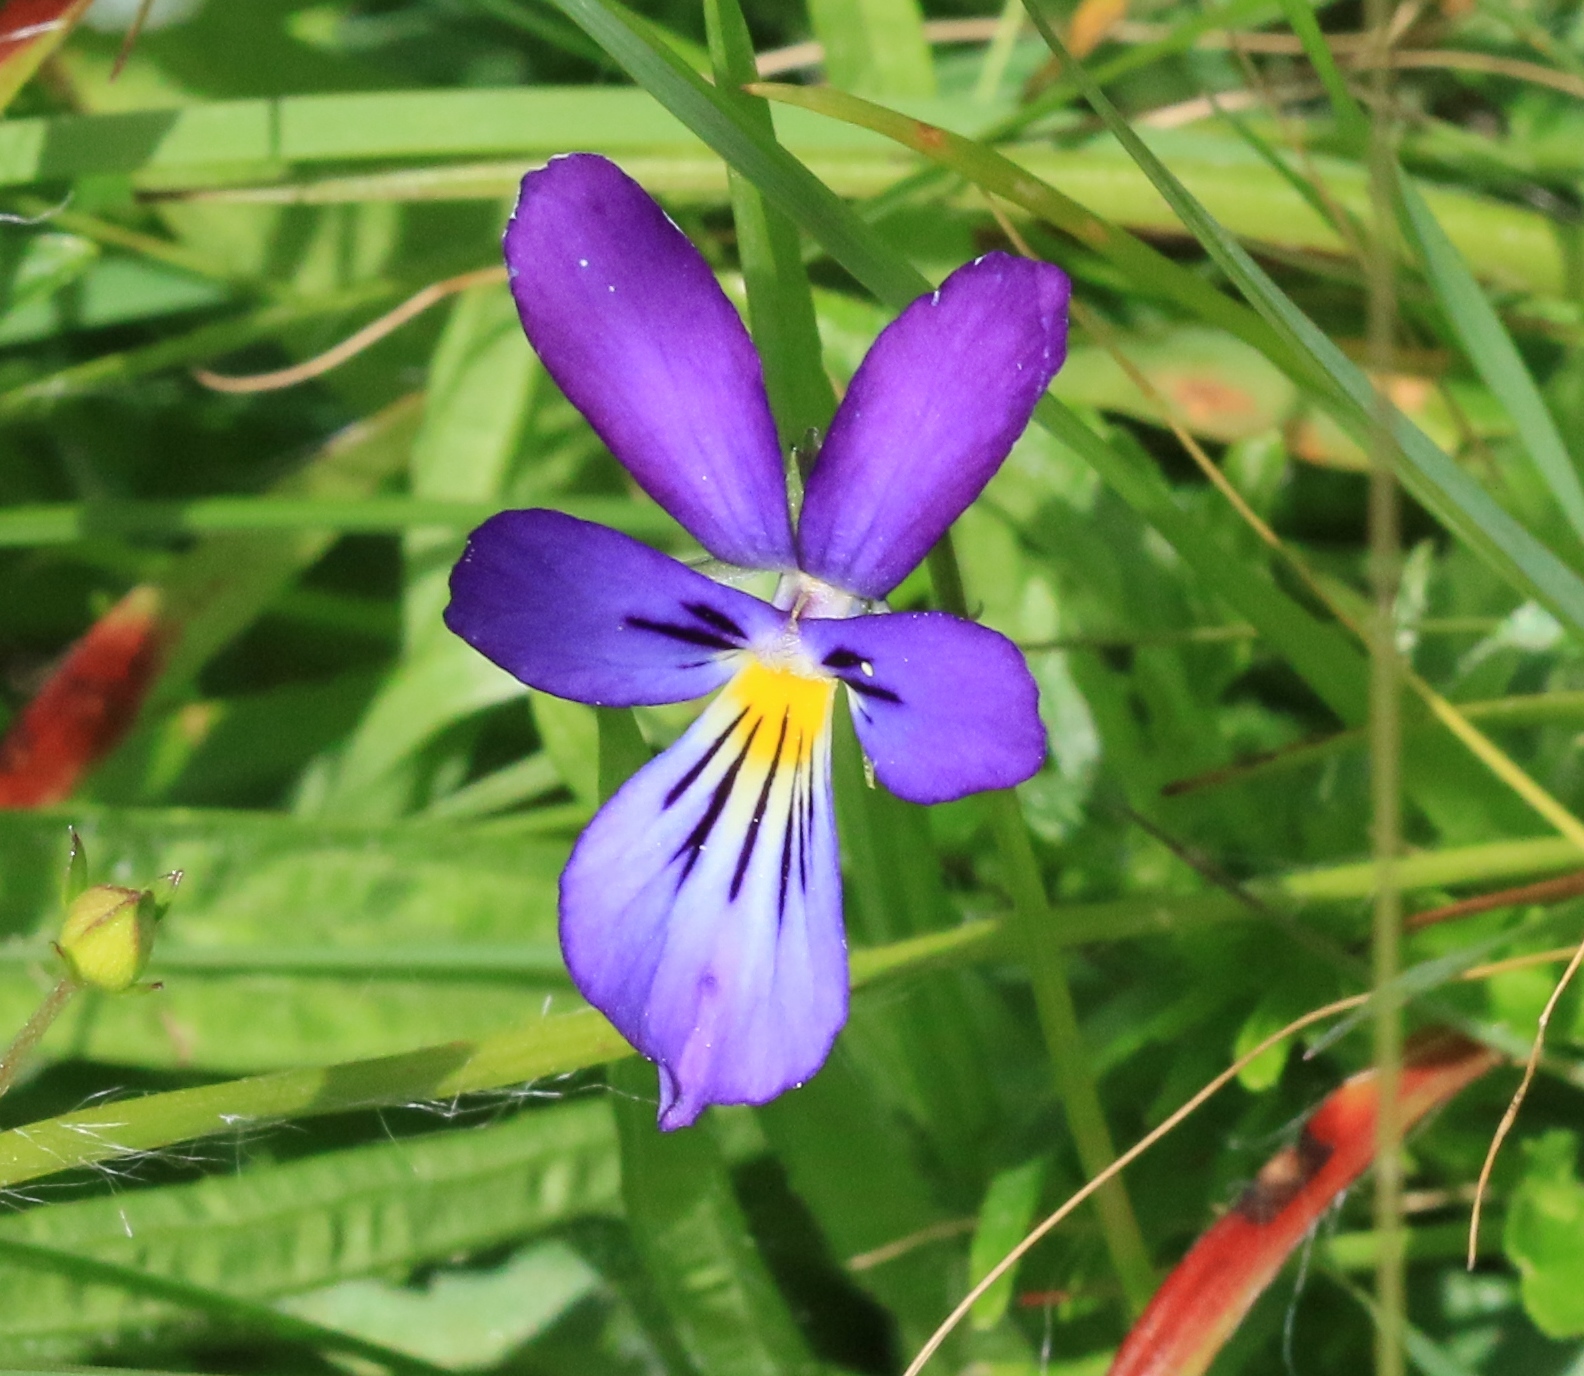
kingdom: Plantae
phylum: Tracheophyta
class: Magnoliopsida
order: Malpighiales
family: Violaceae
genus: Viola
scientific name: Viola lutea
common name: Mountain pansy
